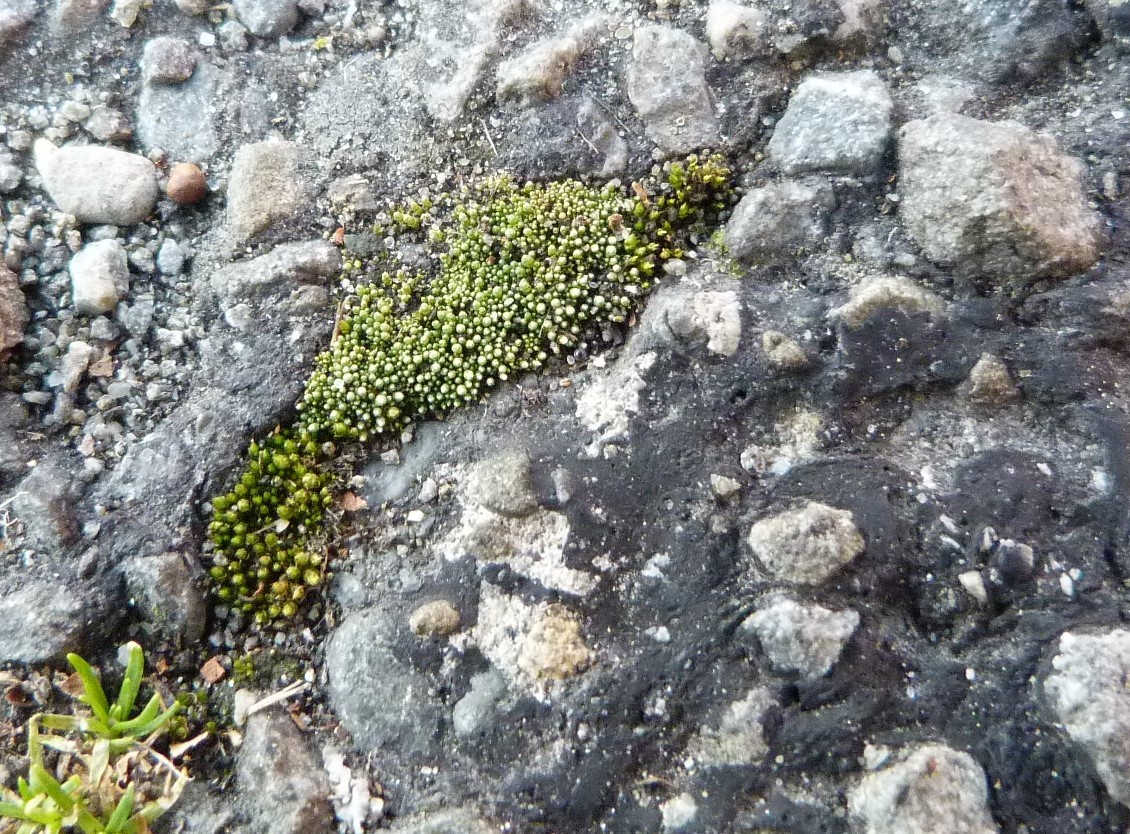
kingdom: Plantae
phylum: Bryophyta
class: Bryopsida
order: Bryales
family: Bryaceae
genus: Bryum
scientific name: Bryum argenteum
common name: Silver-moss
